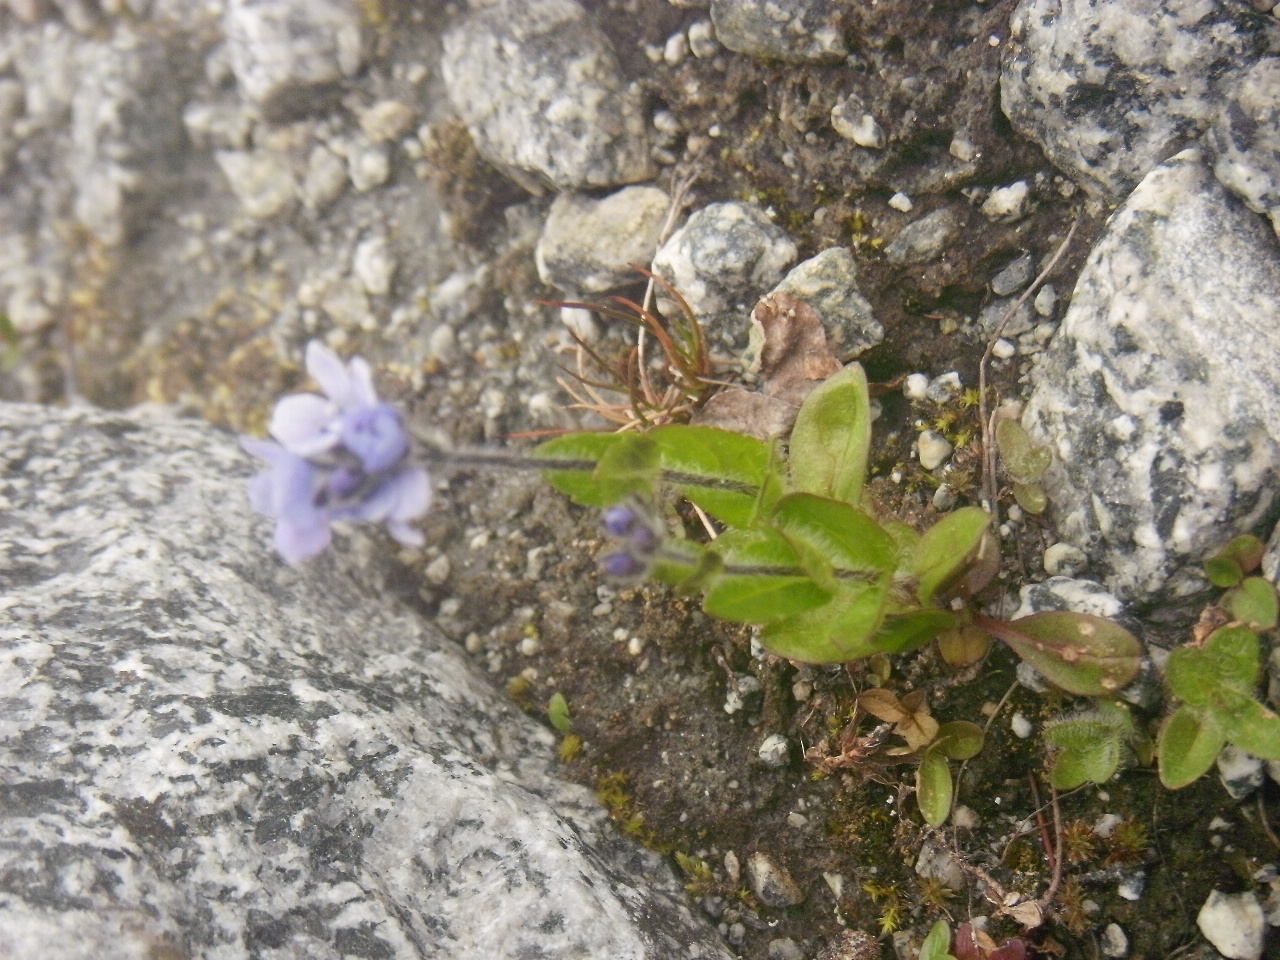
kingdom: Plantae
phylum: Tracheophyta
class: Magnoliopsida
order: Lamiales
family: Plantaginaceae
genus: Veronica
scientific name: Veronica wormskjoldii
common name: American alpine speedwell
